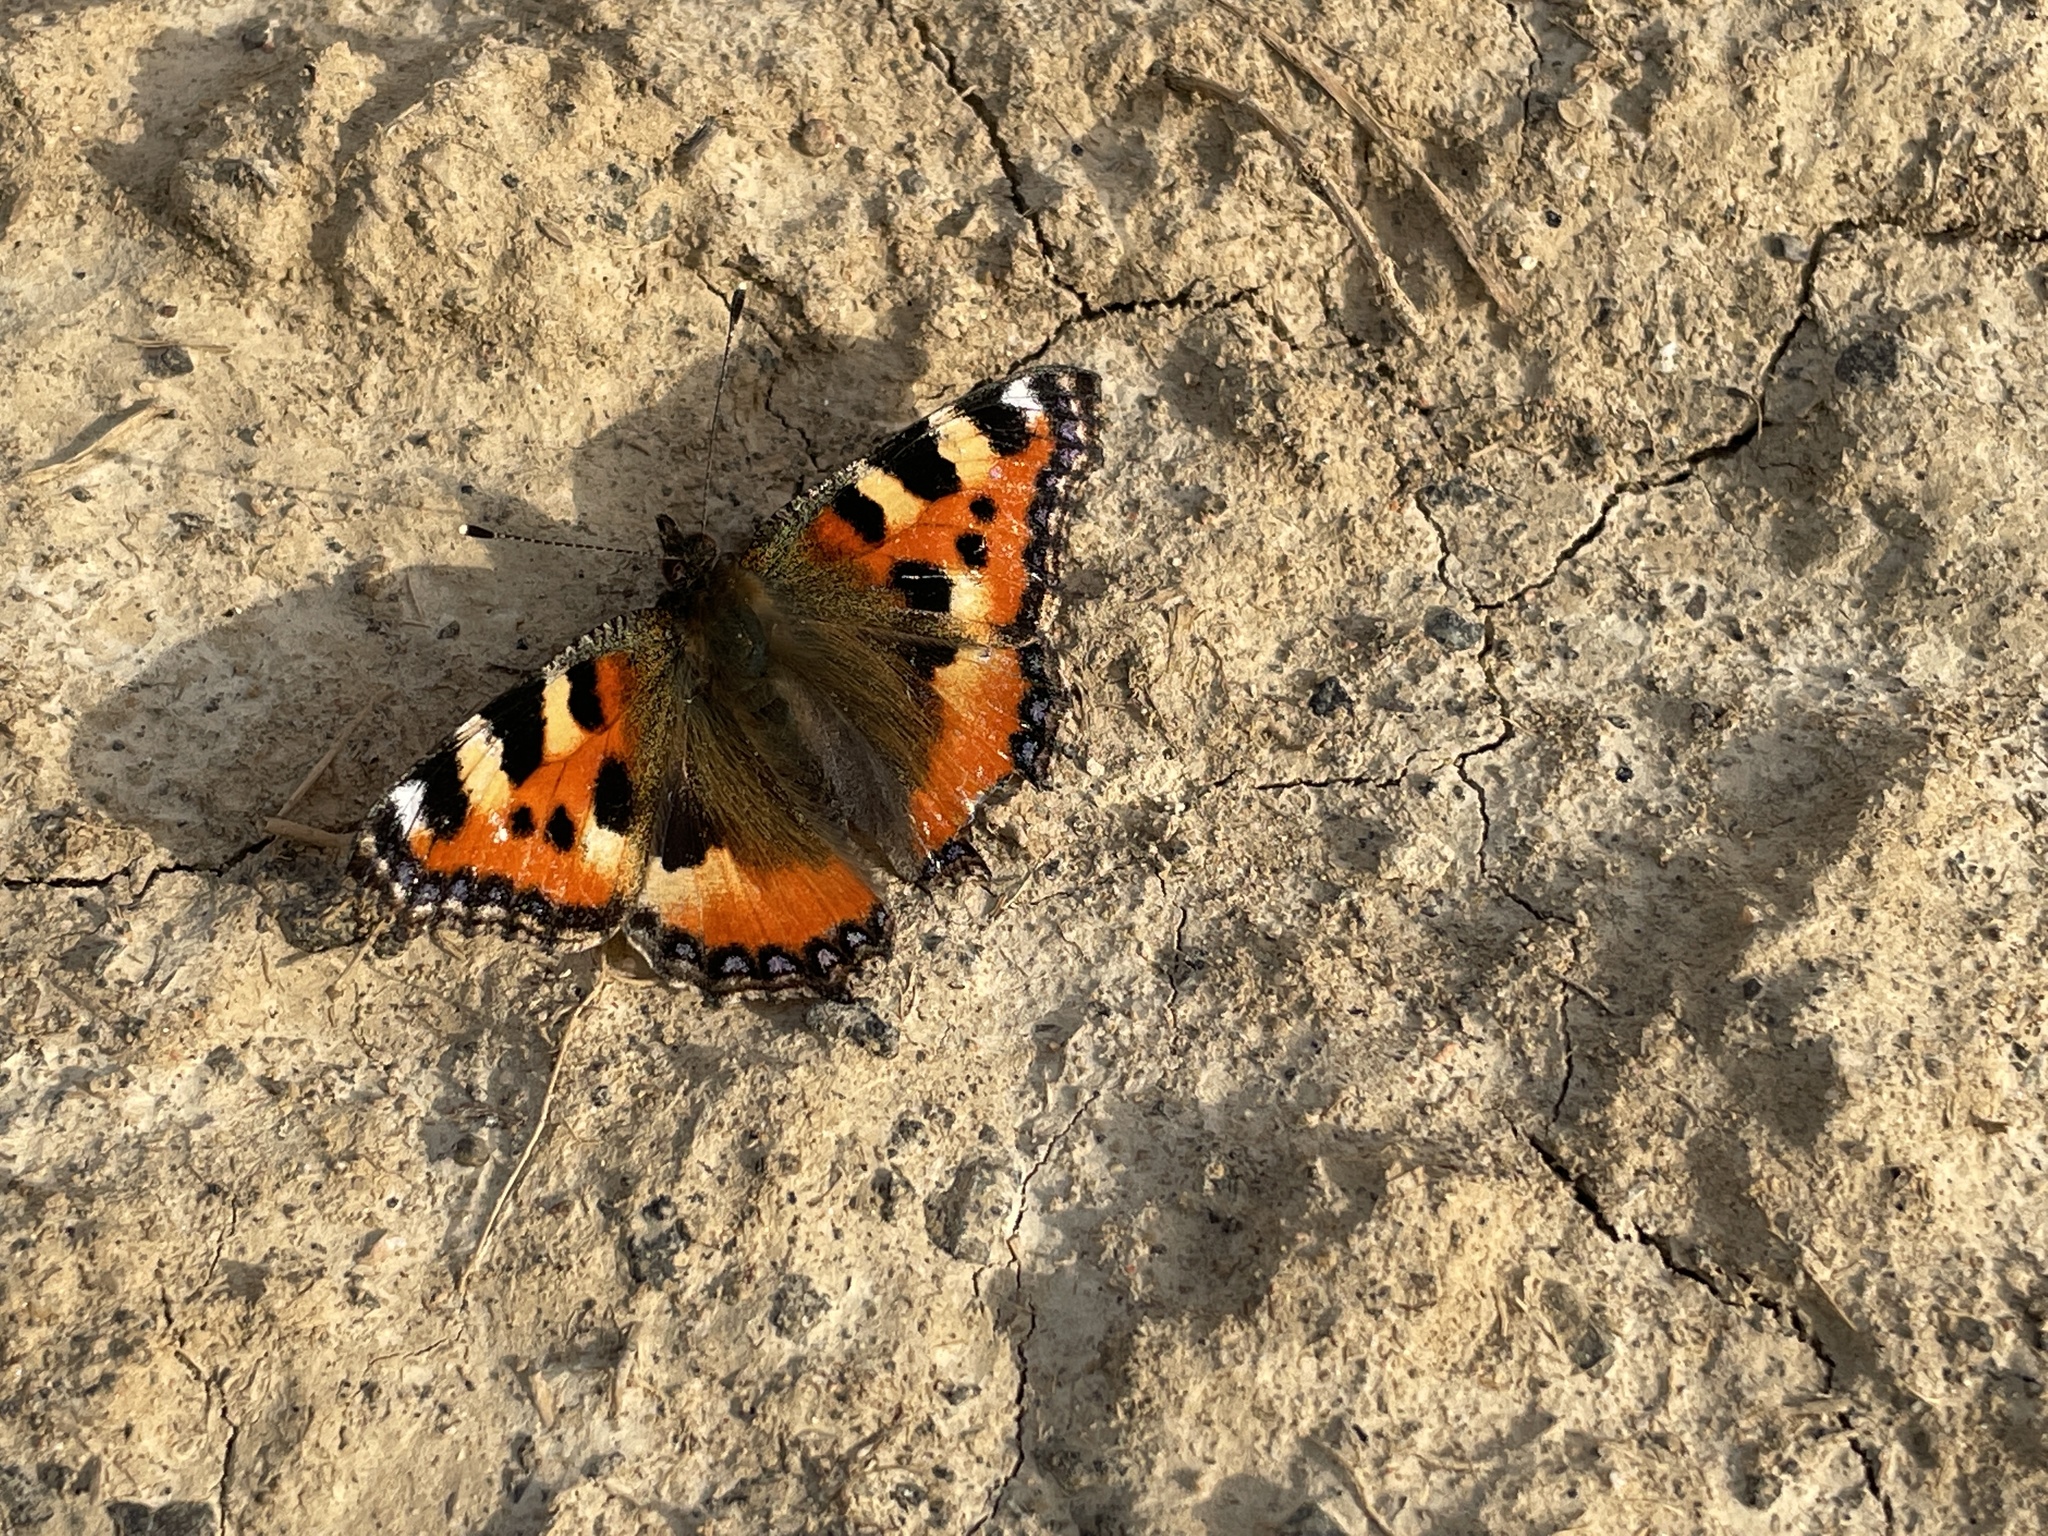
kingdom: Animalia
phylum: Arthropoda
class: Insecta
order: Lepidoptera
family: Nymphalidae
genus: Aglais
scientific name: Aglais urticae
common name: Small tortoiseshell
